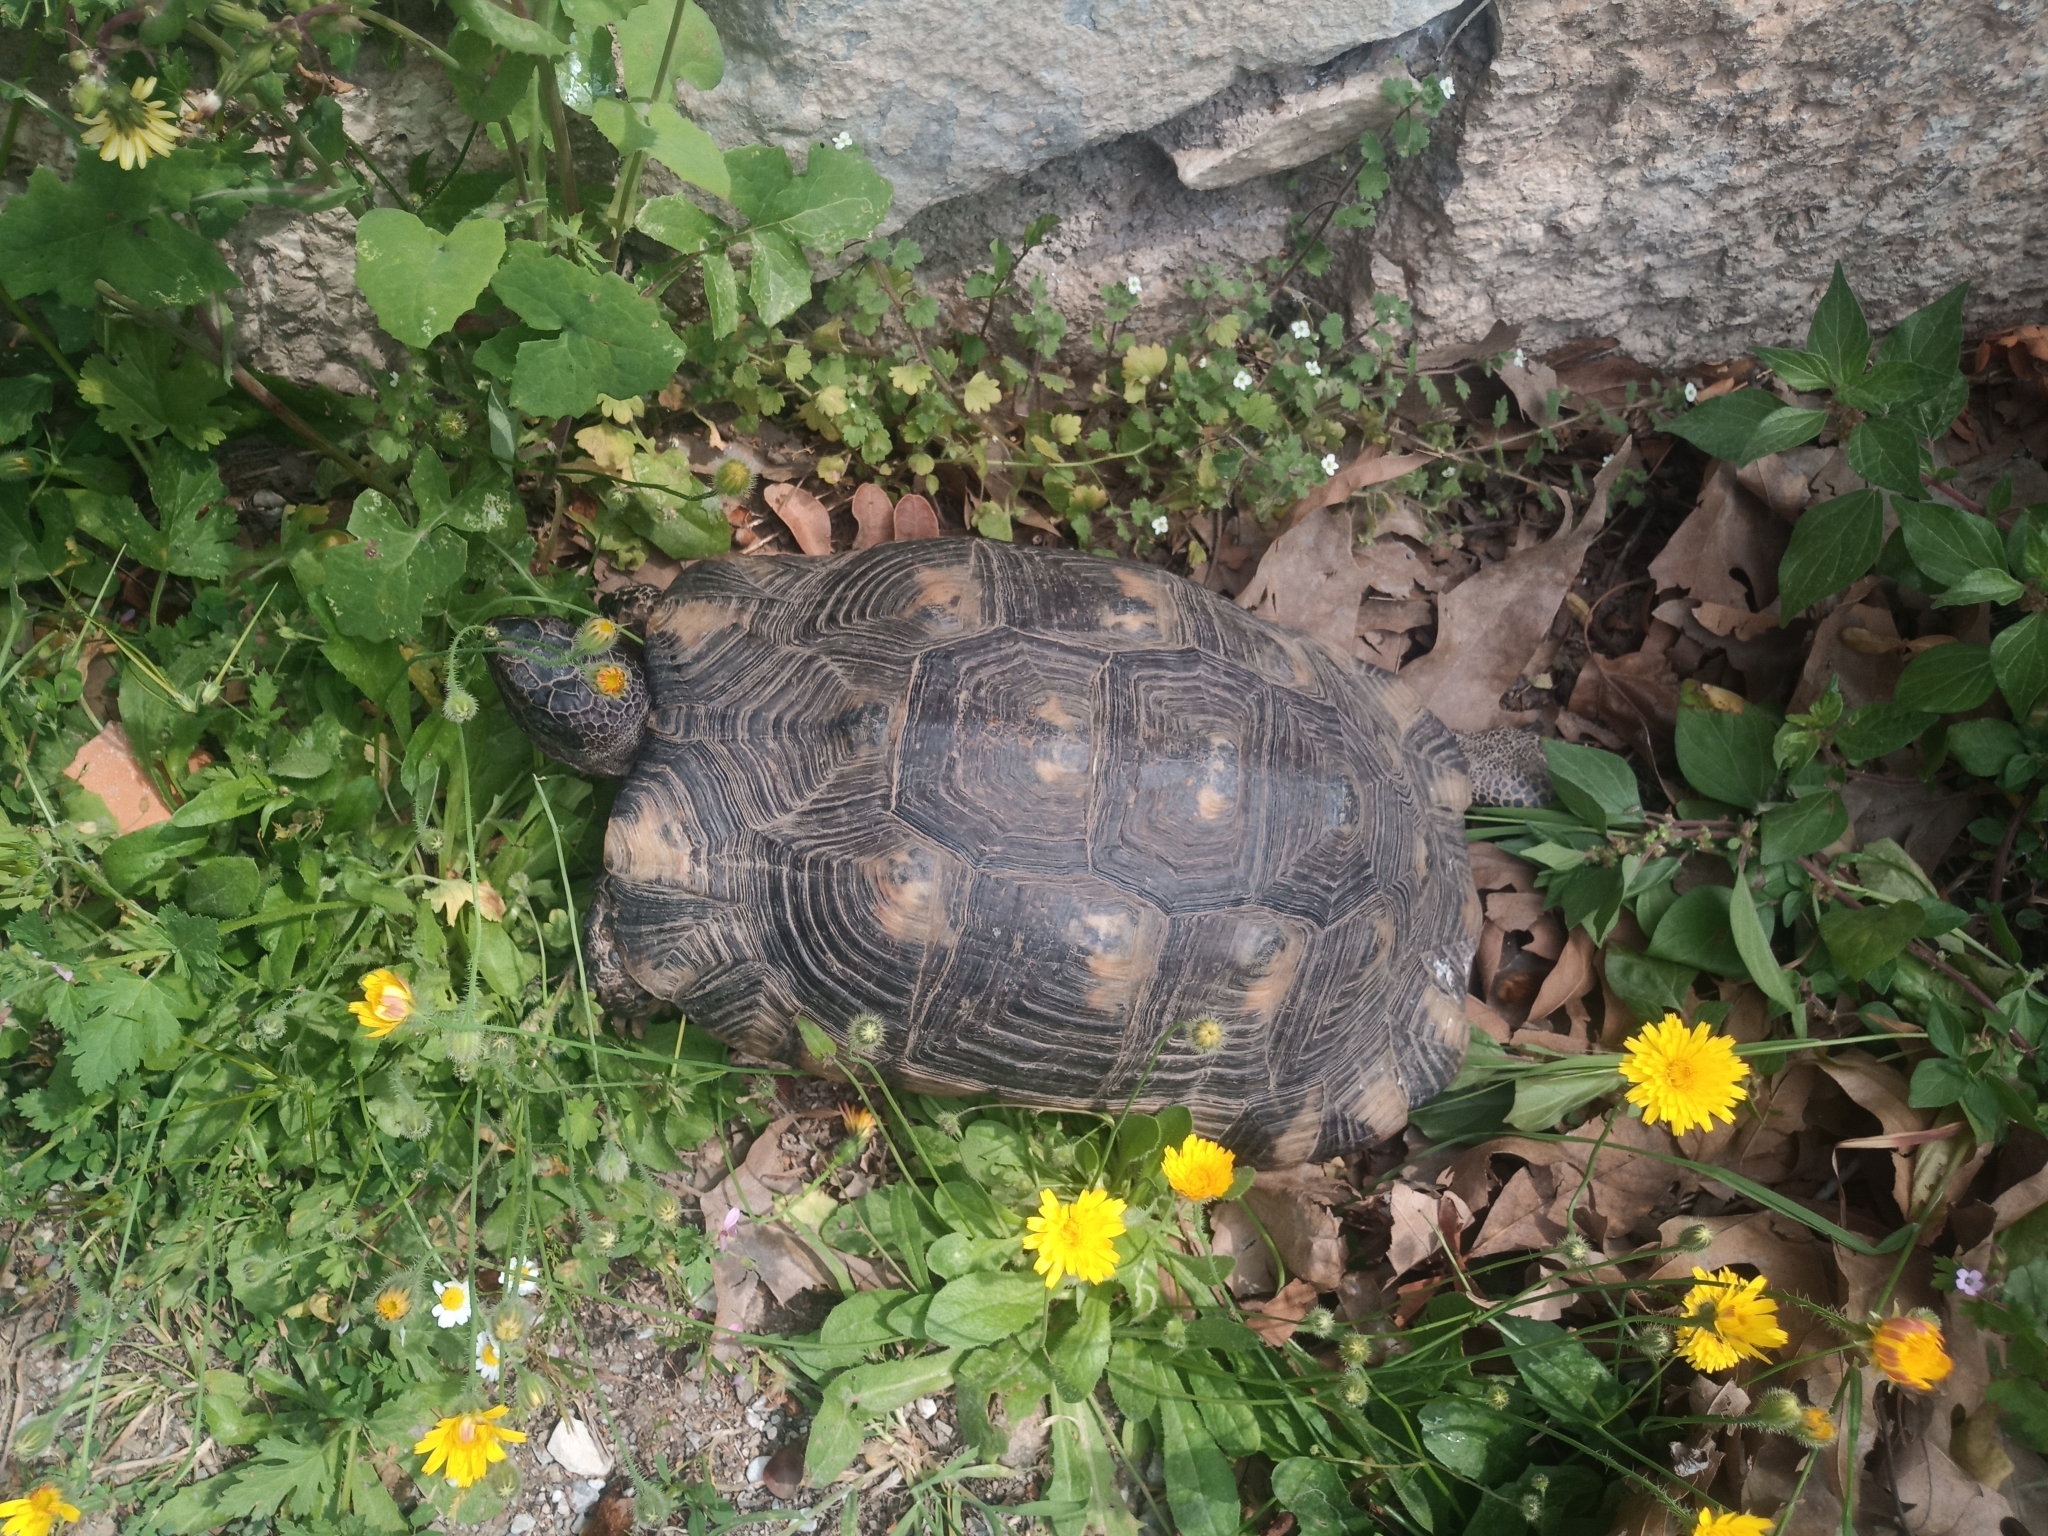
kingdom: Animalia
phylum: Chordata
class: Testudines
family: Testudinidae
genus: Testudo
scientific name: Testudo marginata
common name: Marginated tortoise
